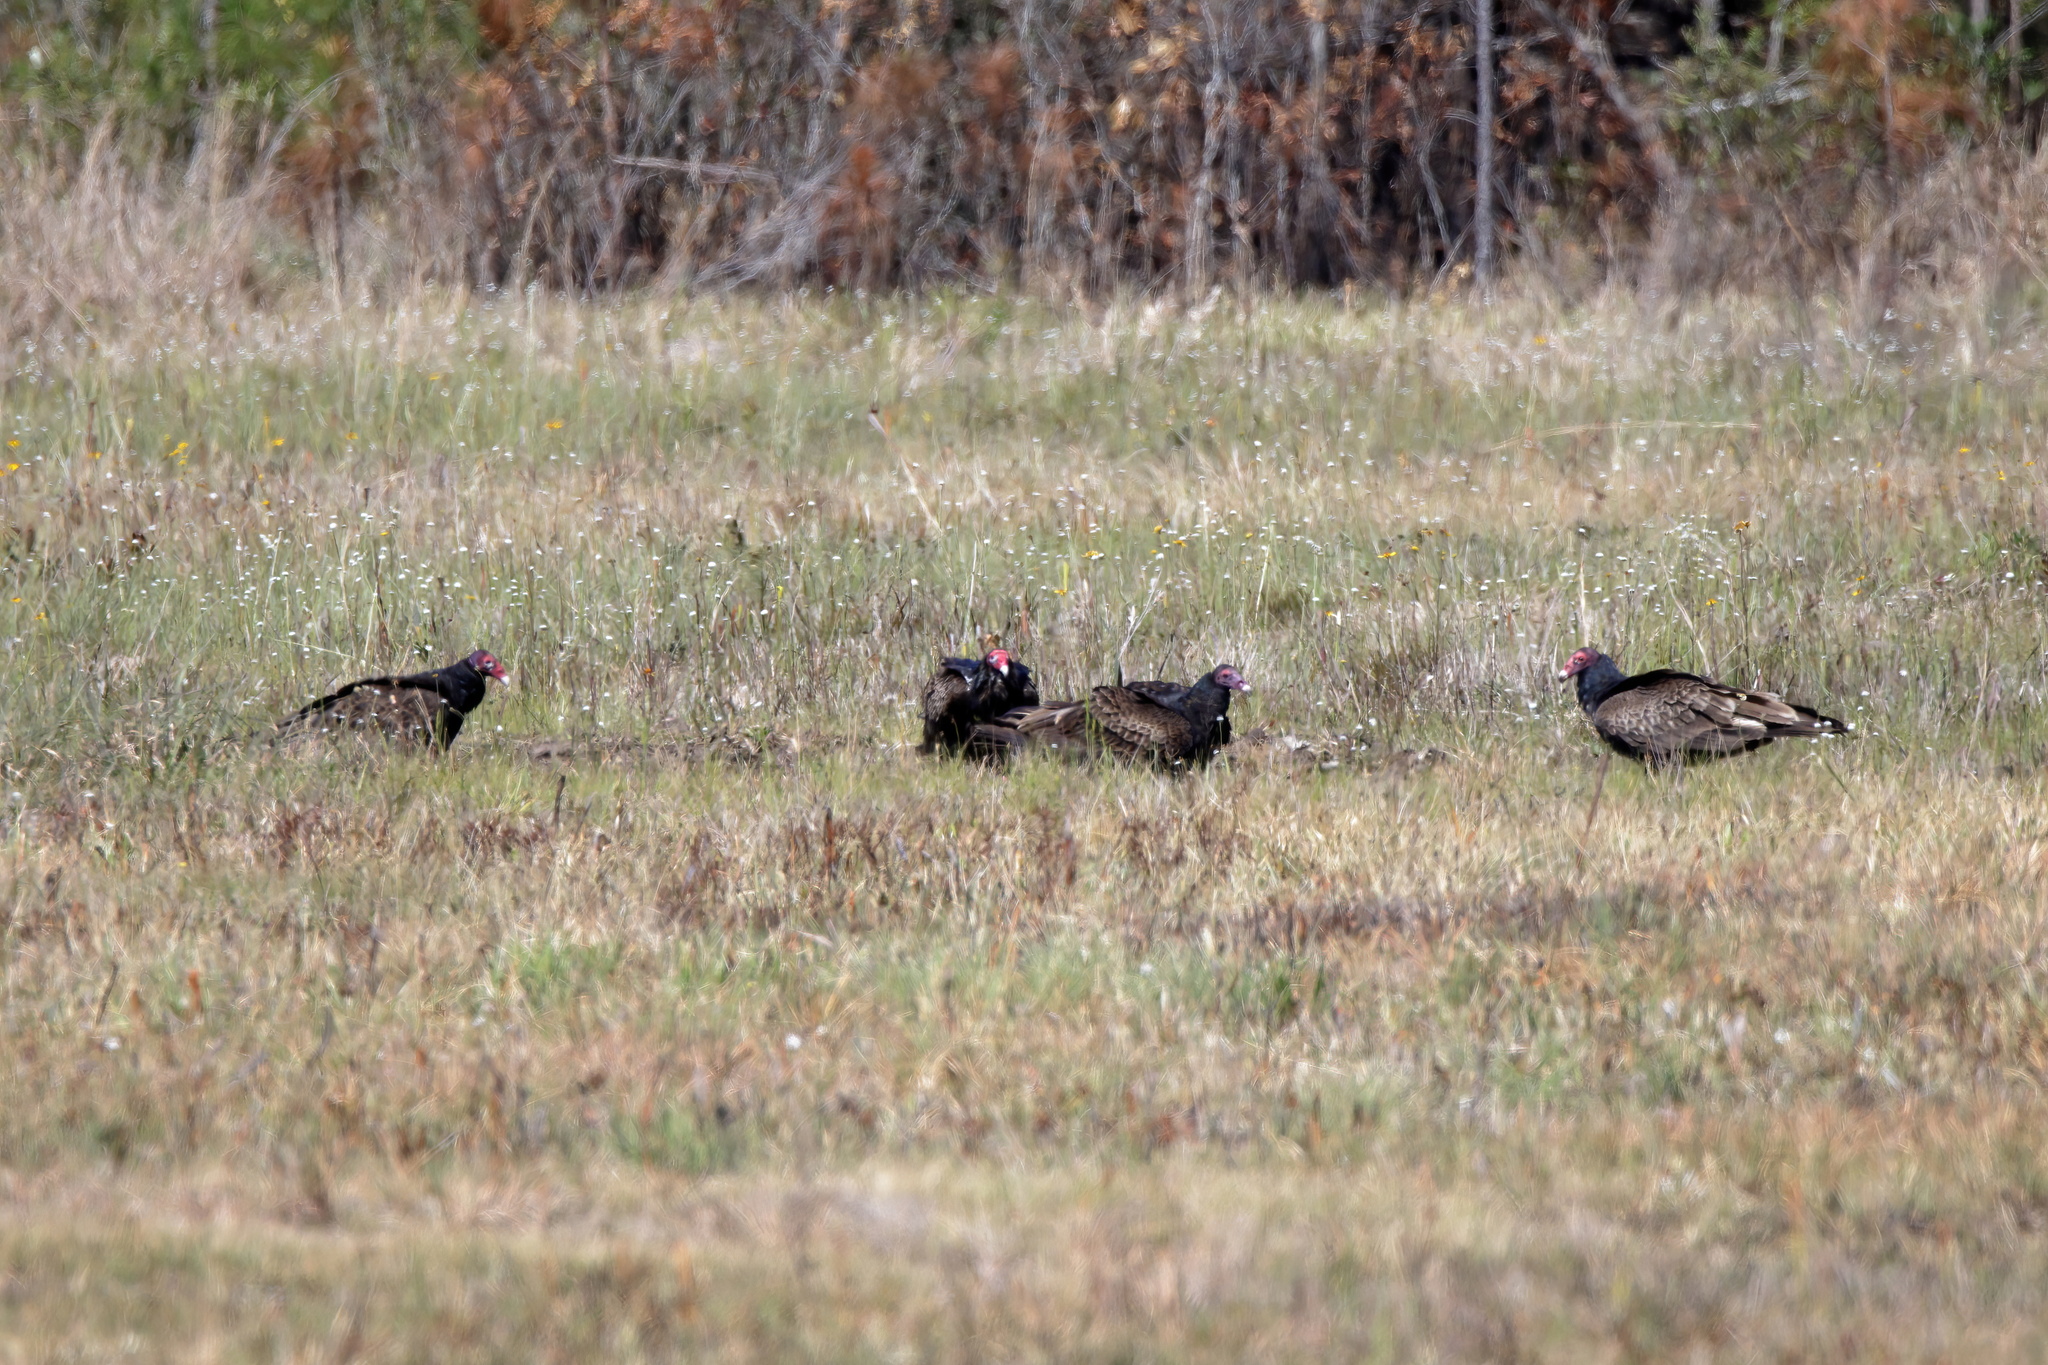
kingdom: Animalia
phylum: Chordata
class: Aves
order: Accipitriformes
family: Cathartidae
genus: Cathartes
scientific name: Cathartes aura
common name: Turkey vulture
